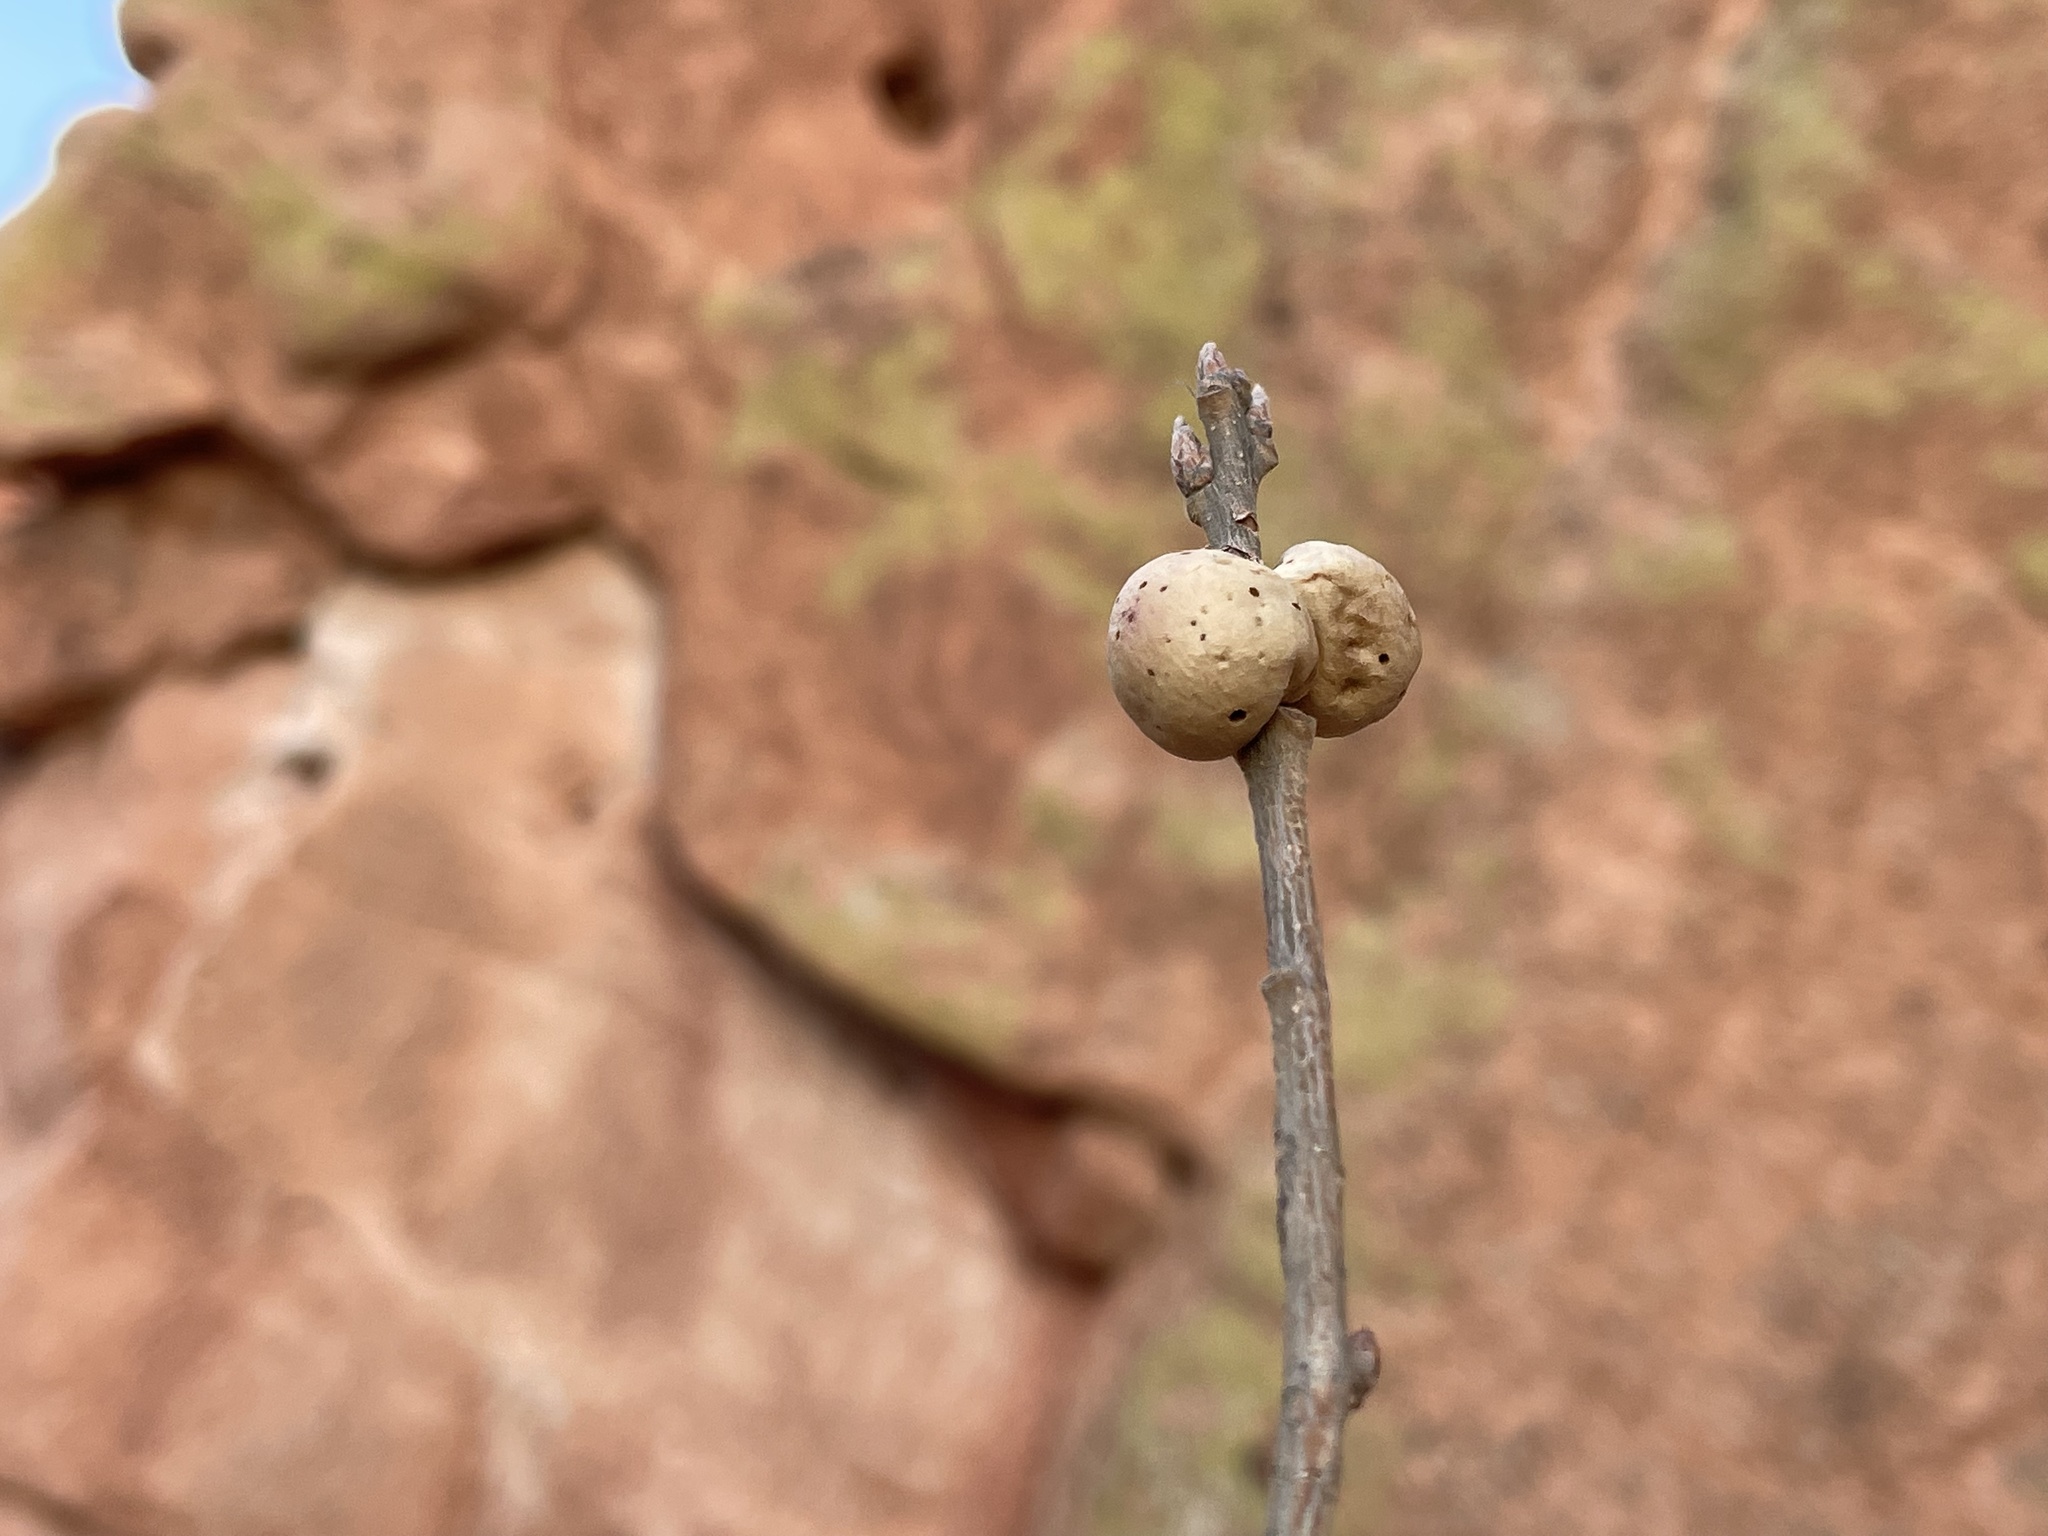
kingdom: Animalia
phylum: Arthropoda
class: Insecta
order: Hymenoptera
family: Cynipidae
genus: Disholcaspis
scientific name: Disholcaspis
